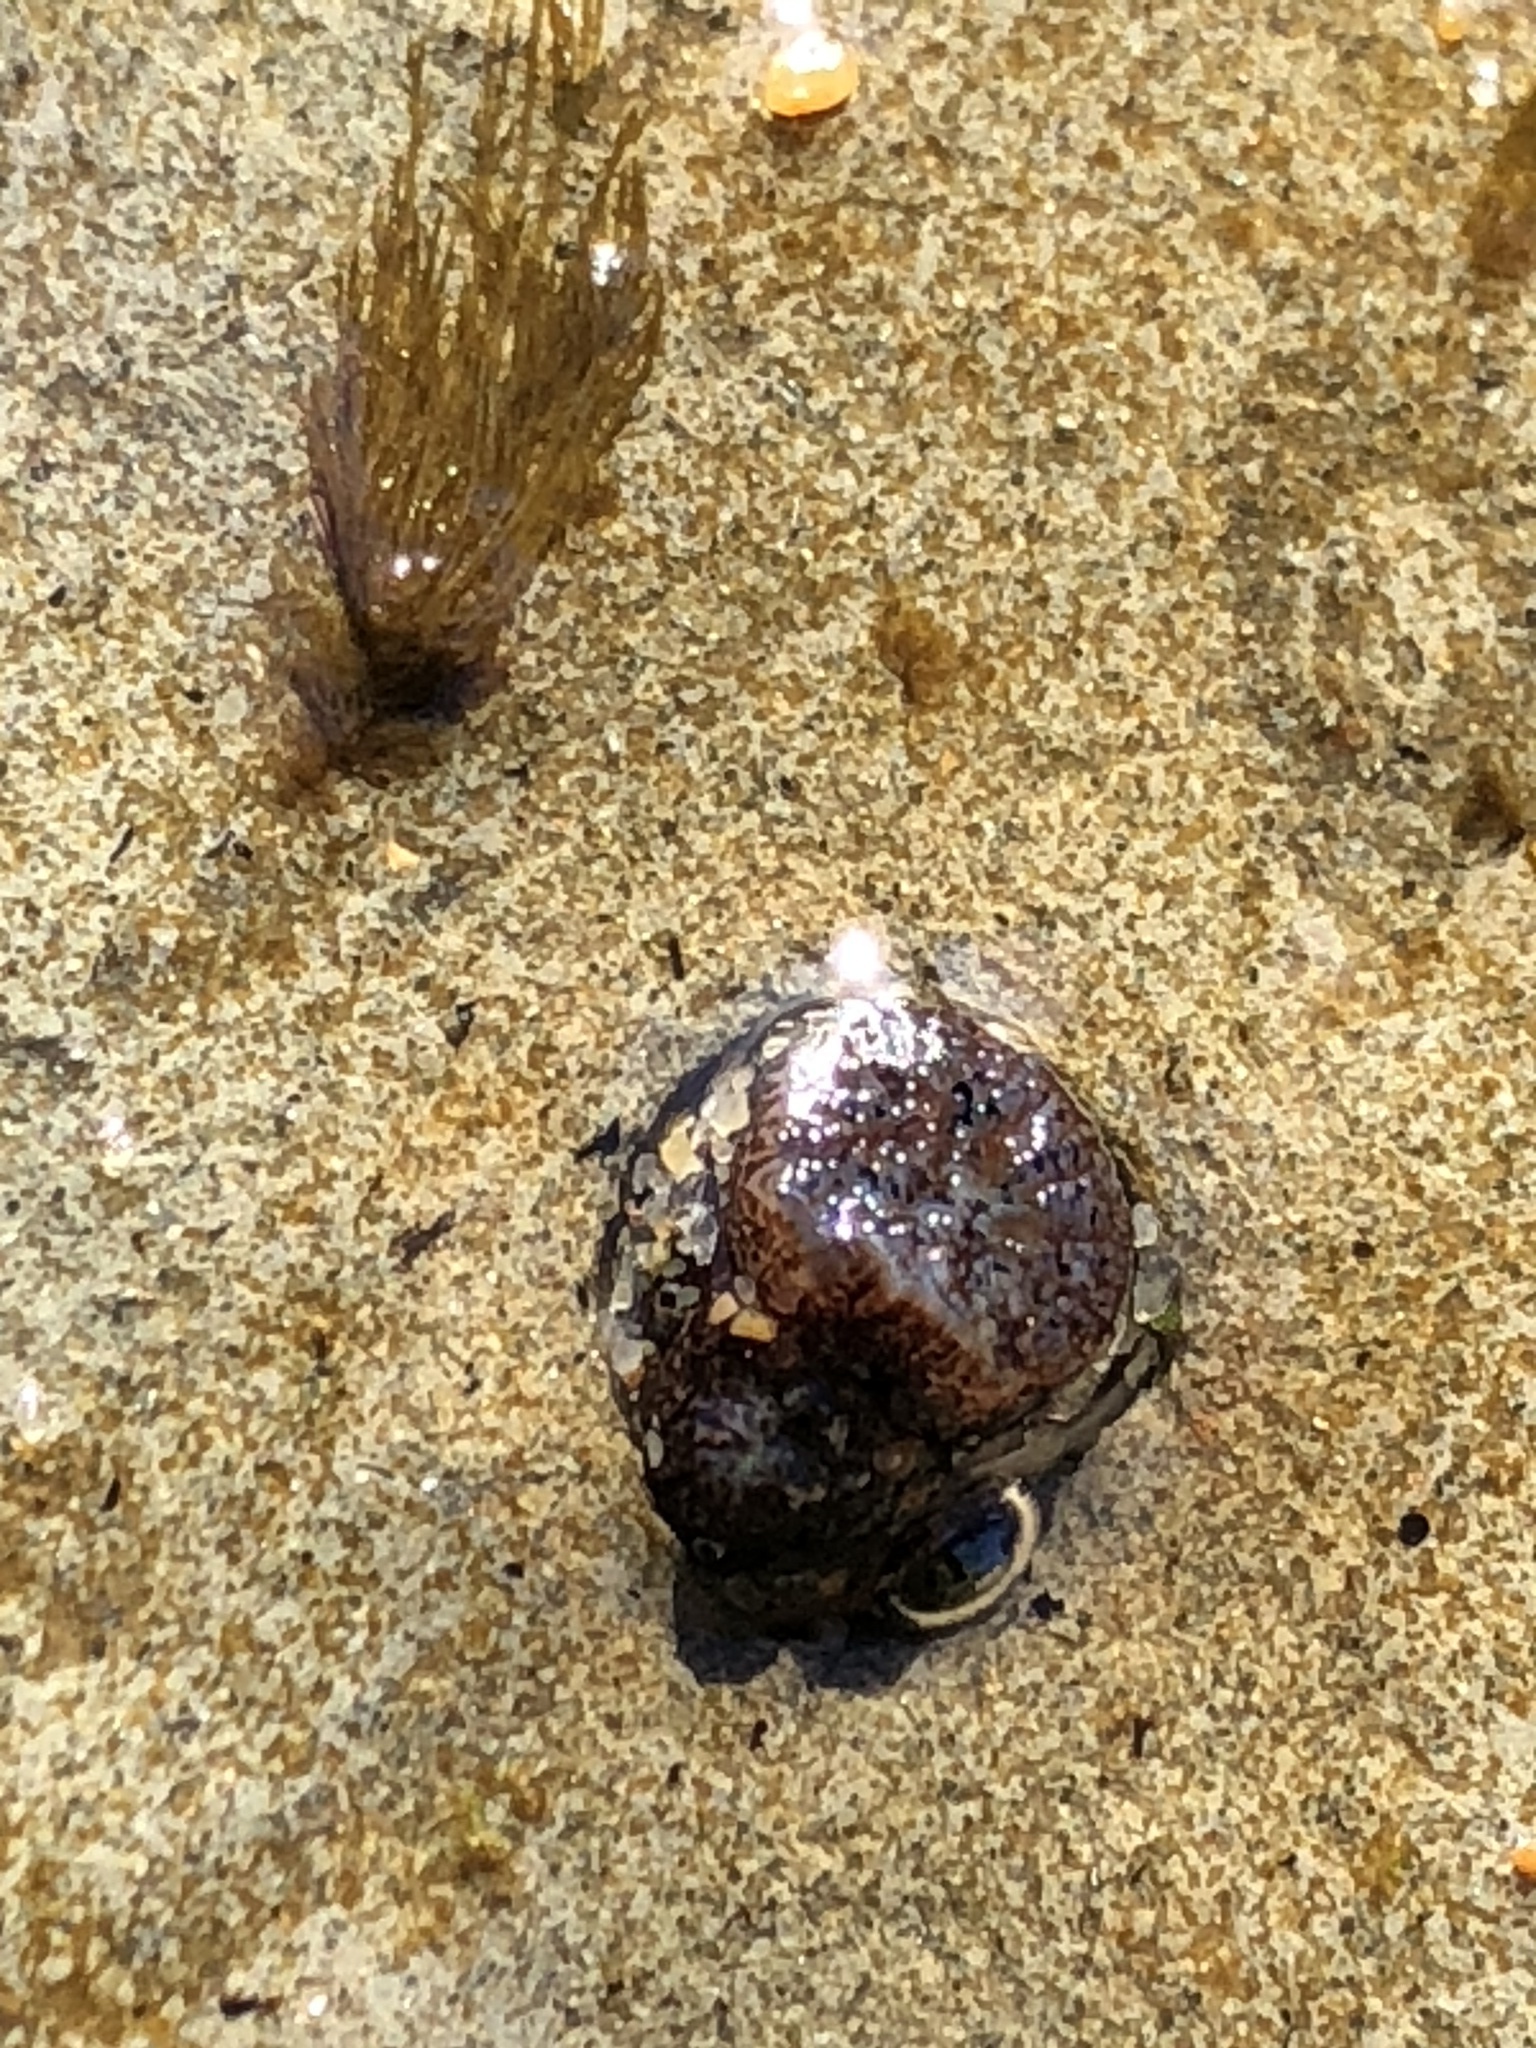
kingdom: Animalia
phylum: Mollusca
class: Bivalvia
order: Myida
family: Pholadidae
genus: Parapholas
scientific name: Parapholas californica
